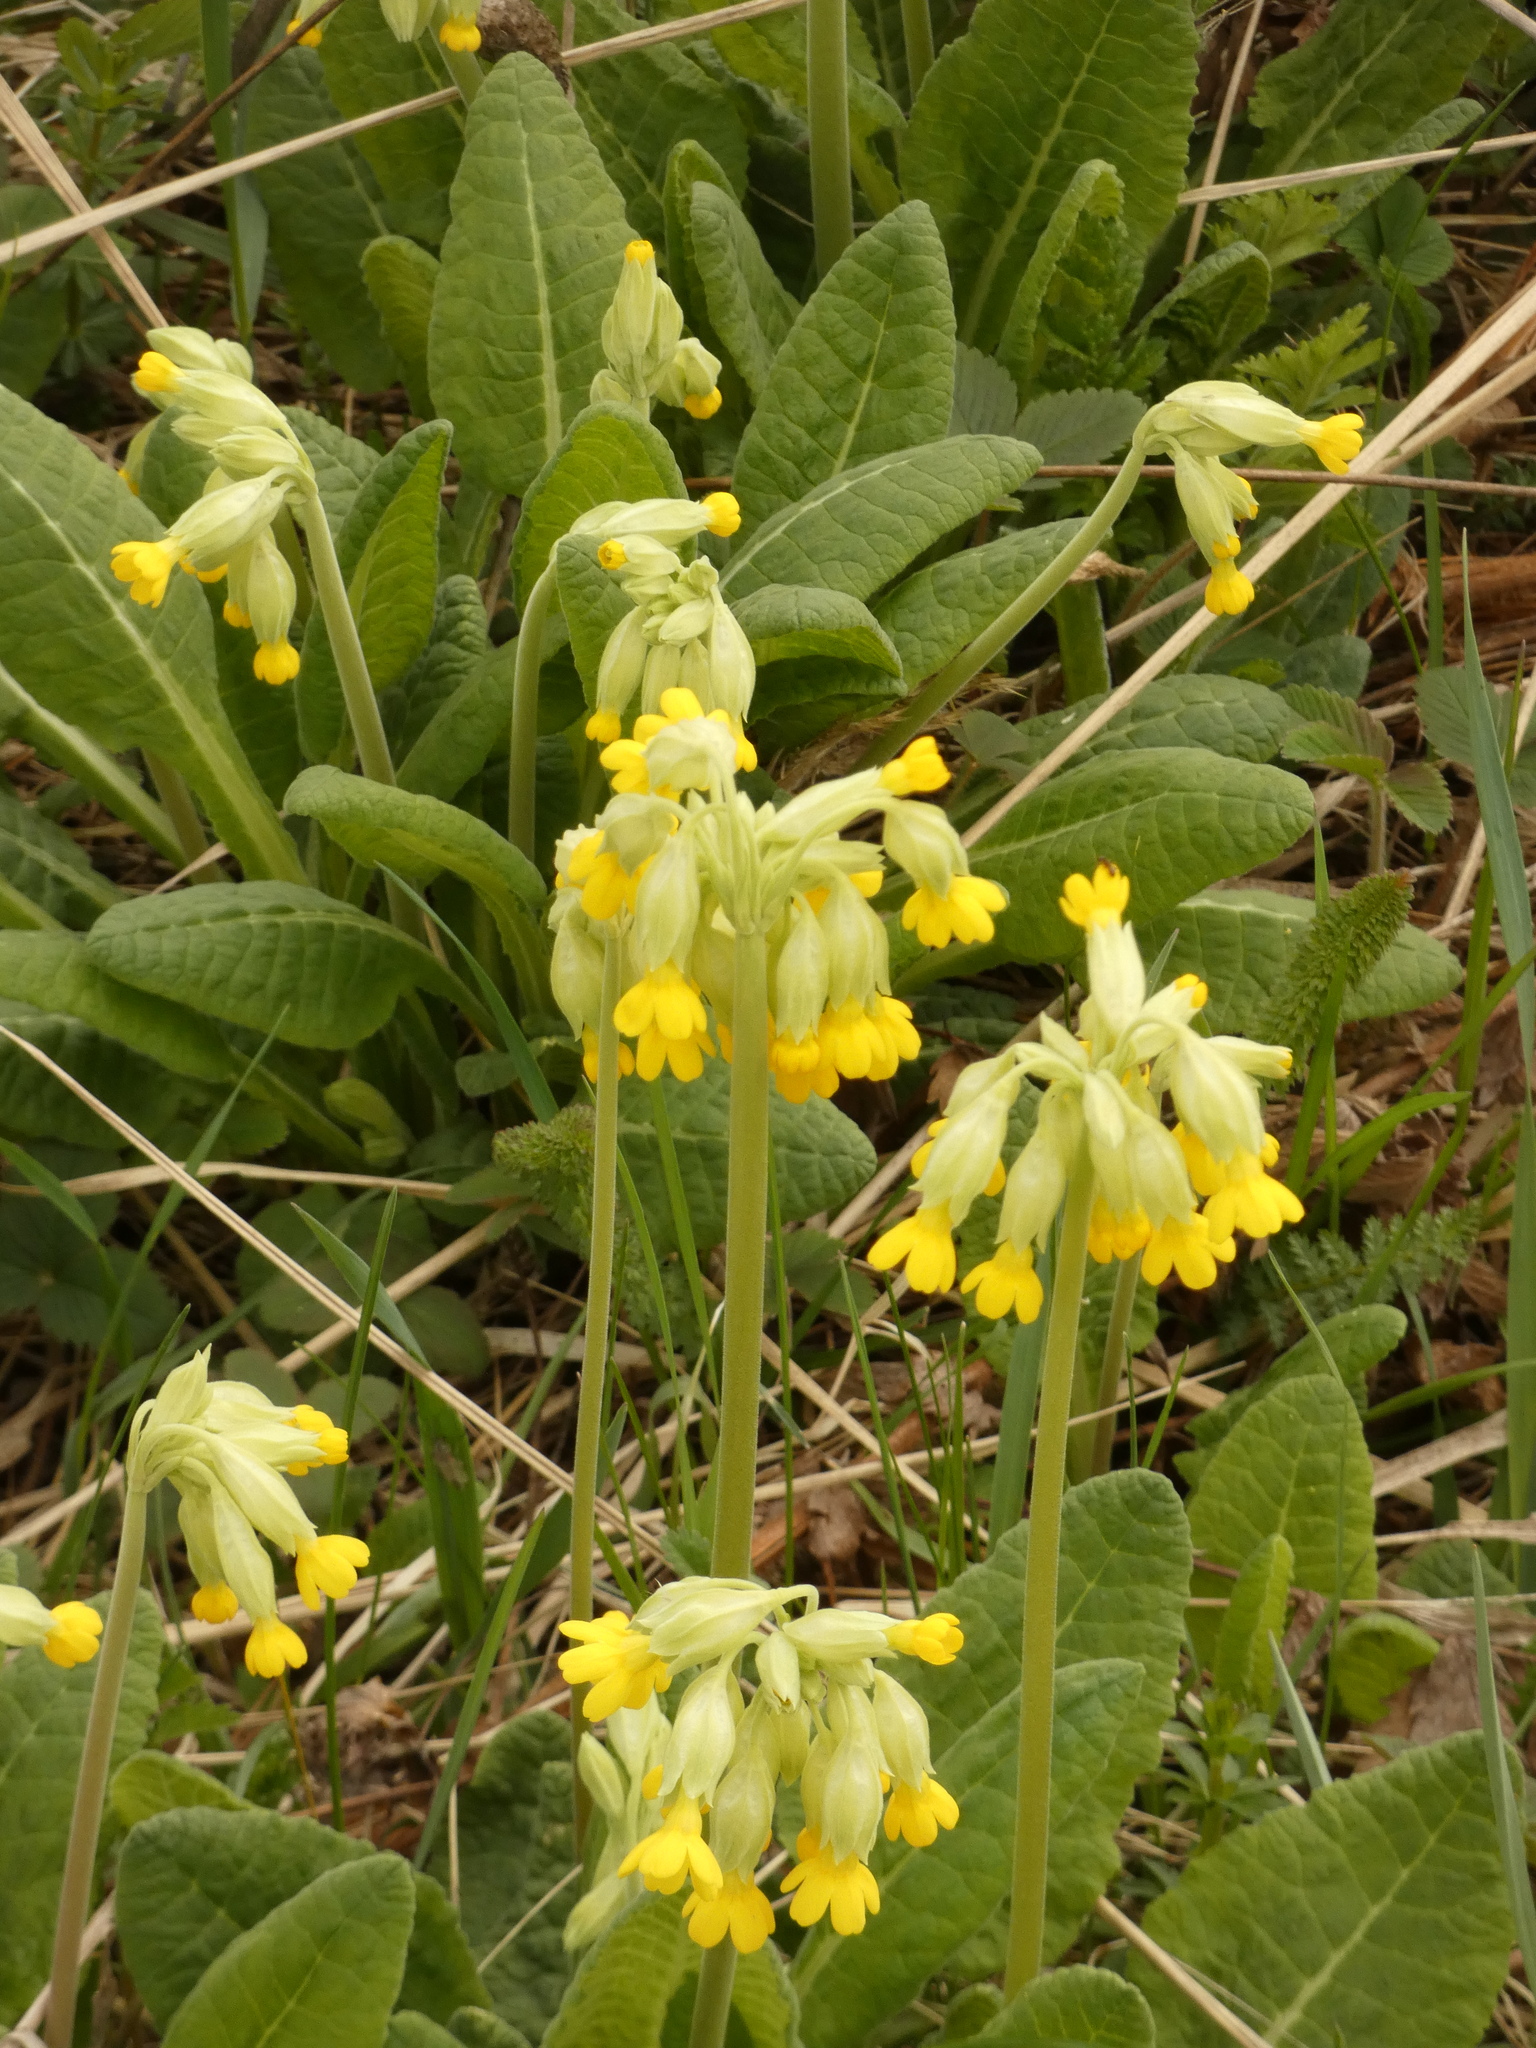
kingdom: Plantae
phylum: Tracheophyta
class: Magnoliopsida
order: Ericales
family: Primulaceae
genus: Primula
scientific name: Primula veris
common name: Cowslip
